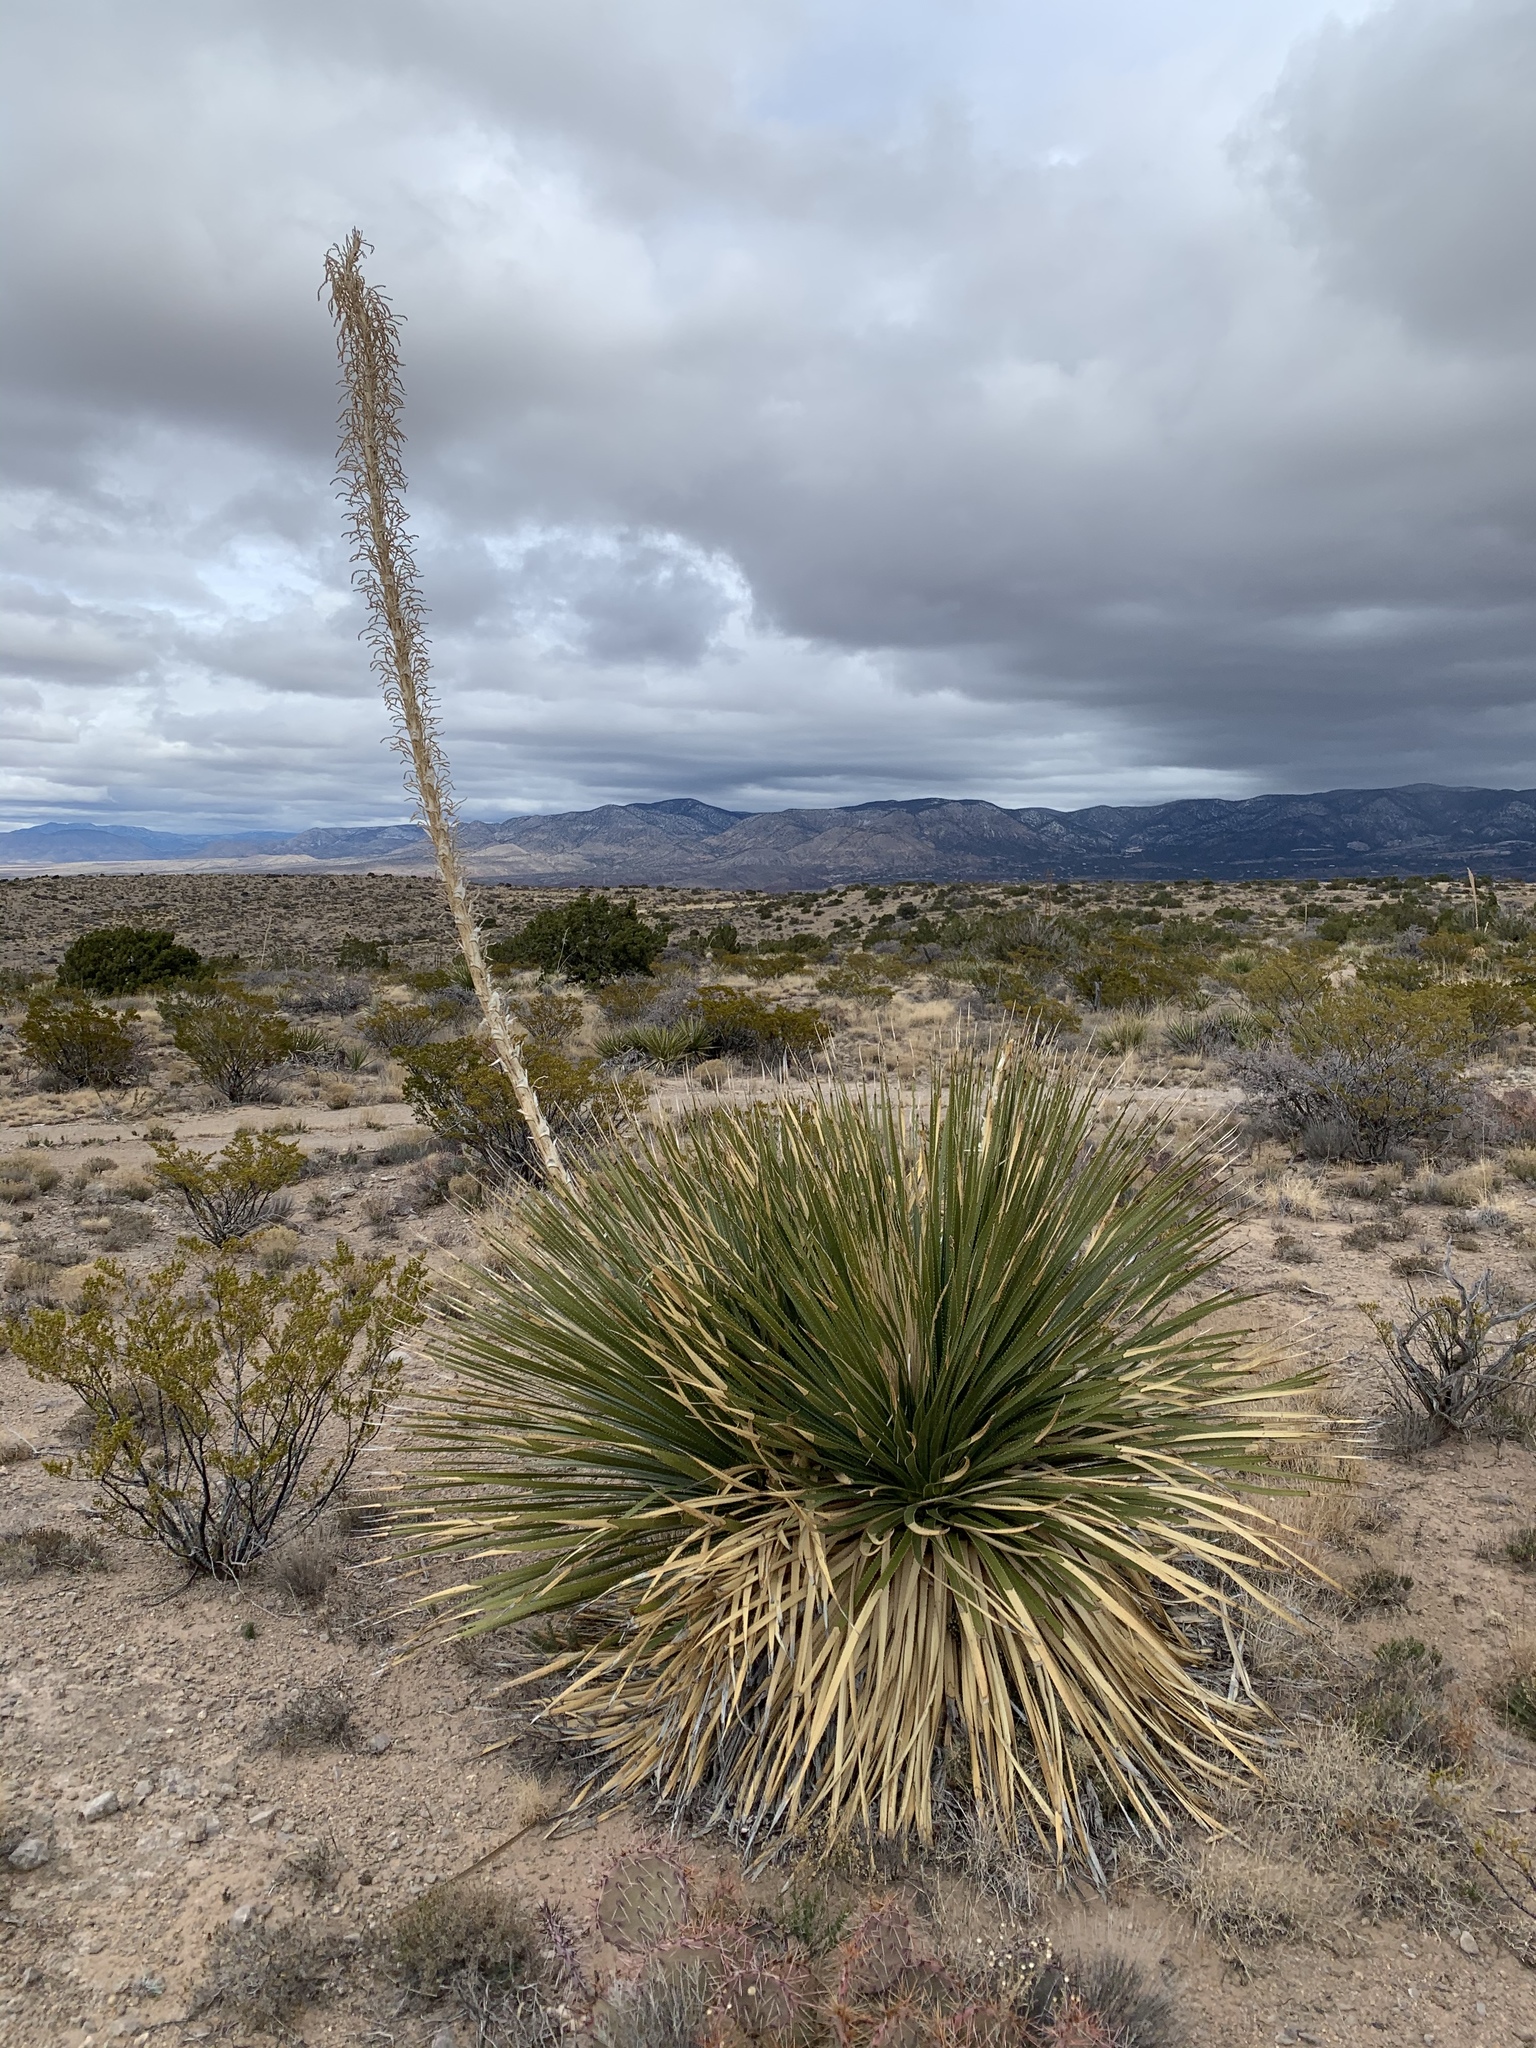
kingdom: Plantae
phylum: Tracheophyta
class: Liliopsida
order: Asparagales
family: Asparagaceae
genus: Dasylirion
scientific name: Dasylirion wheeleri
